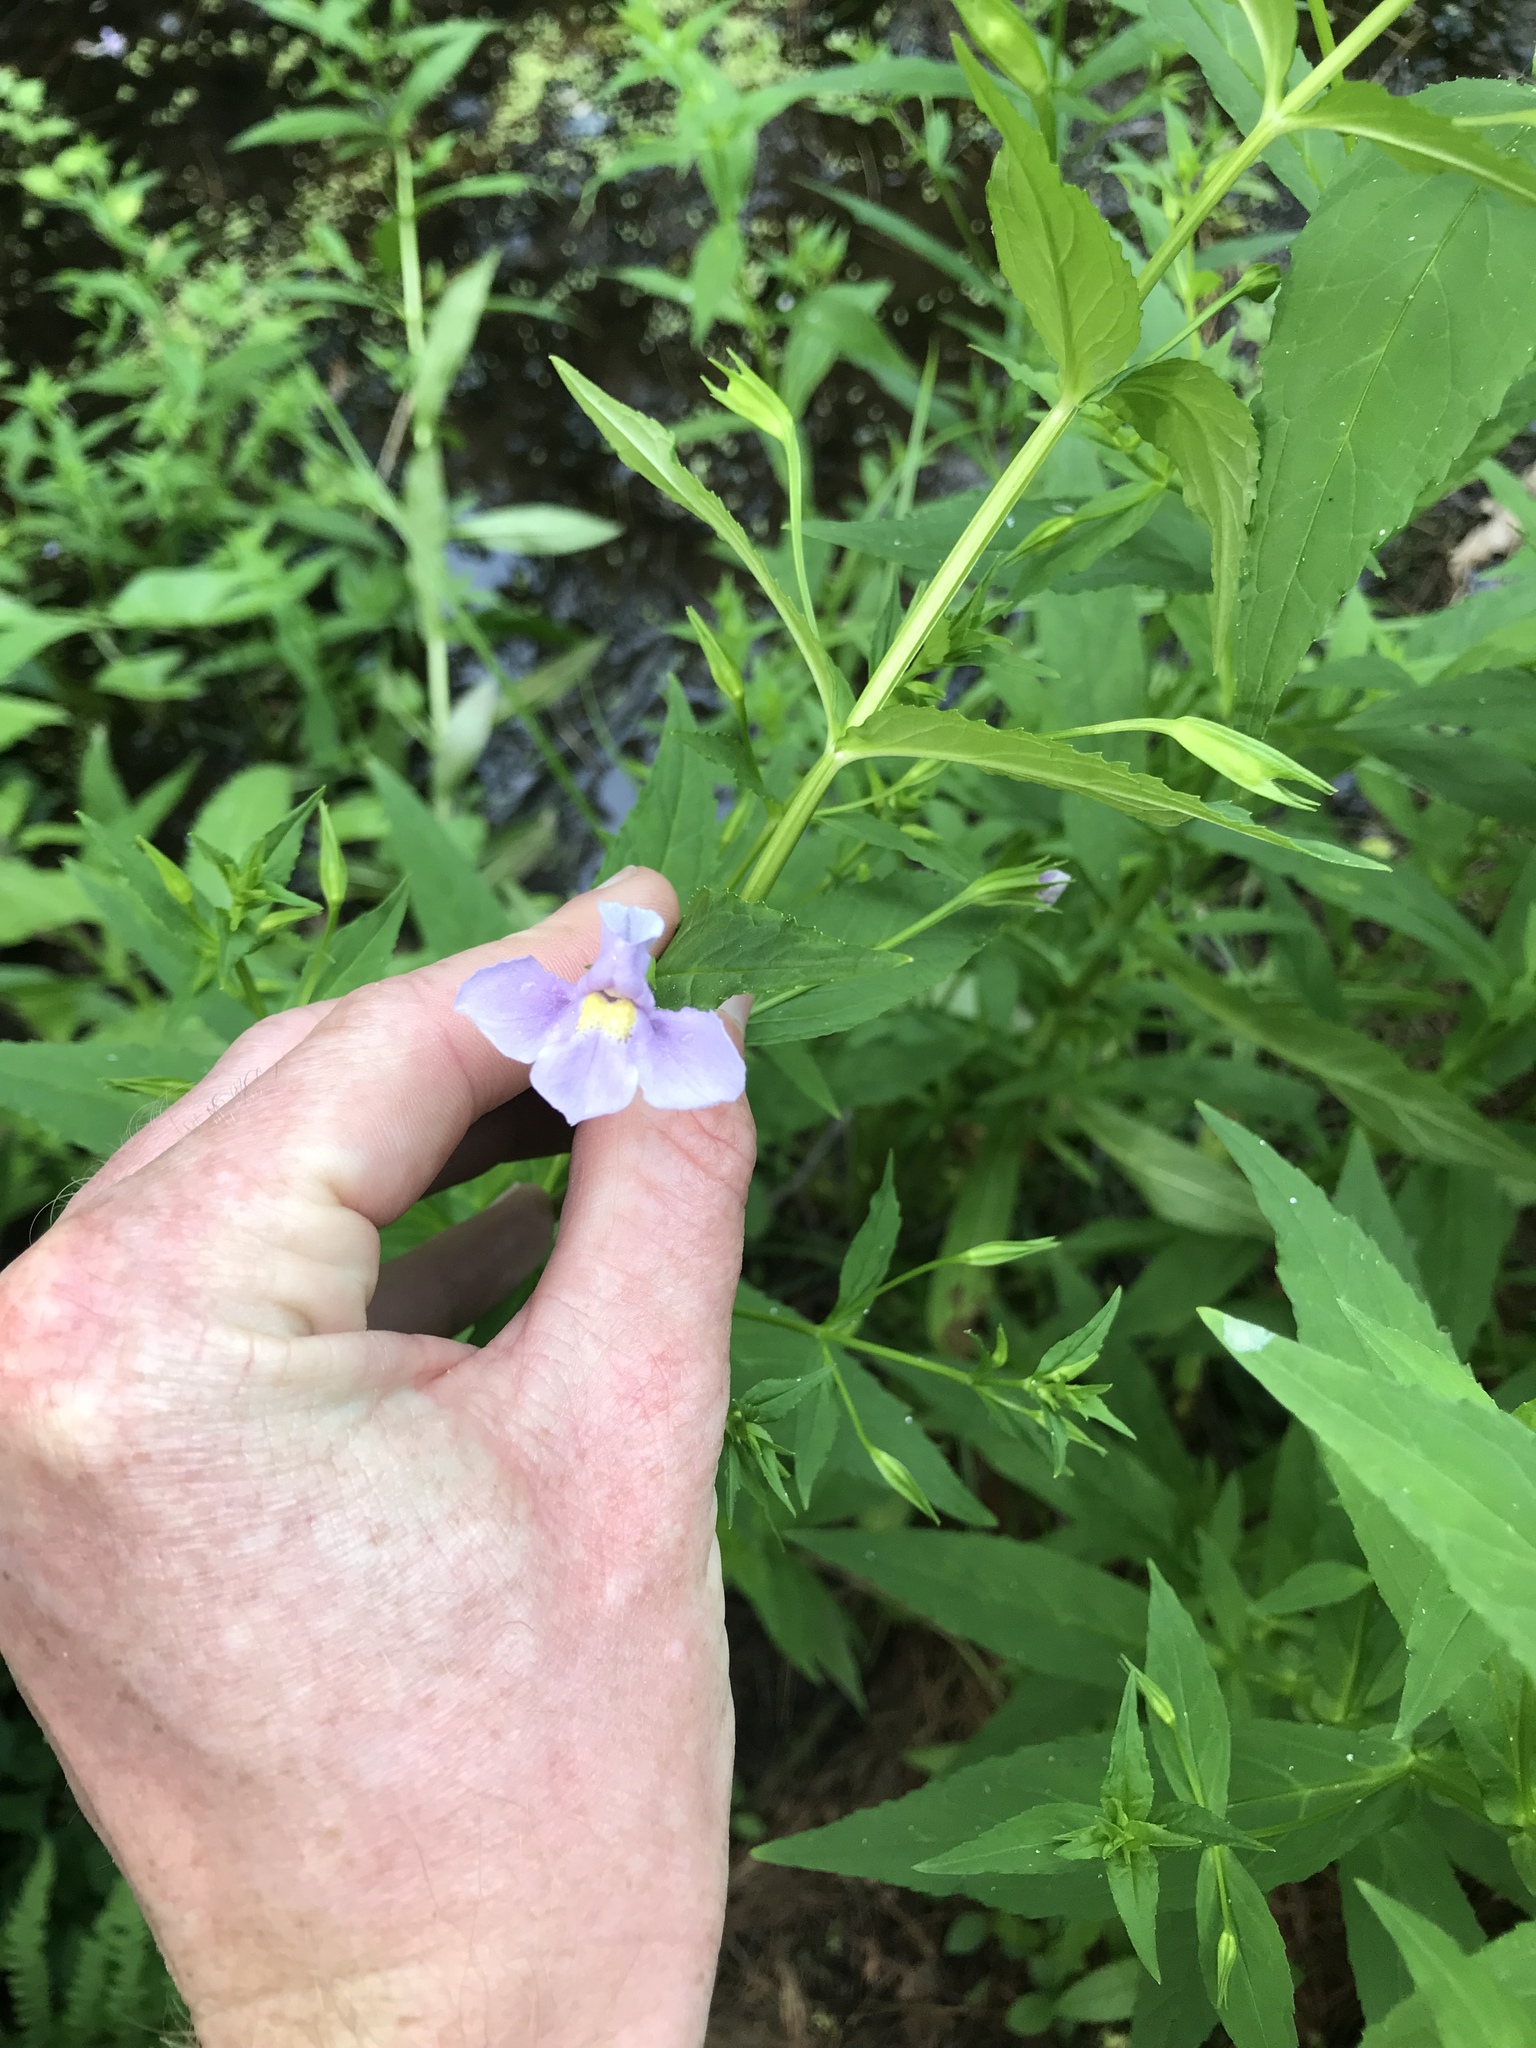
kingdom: Plantae
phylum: Tracheophyta
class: Magnoliopsida
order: Lamiales
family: Phrymaceae
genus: Mimulus
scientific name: Mimulus ringens
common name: Allegheny monkeyflower
